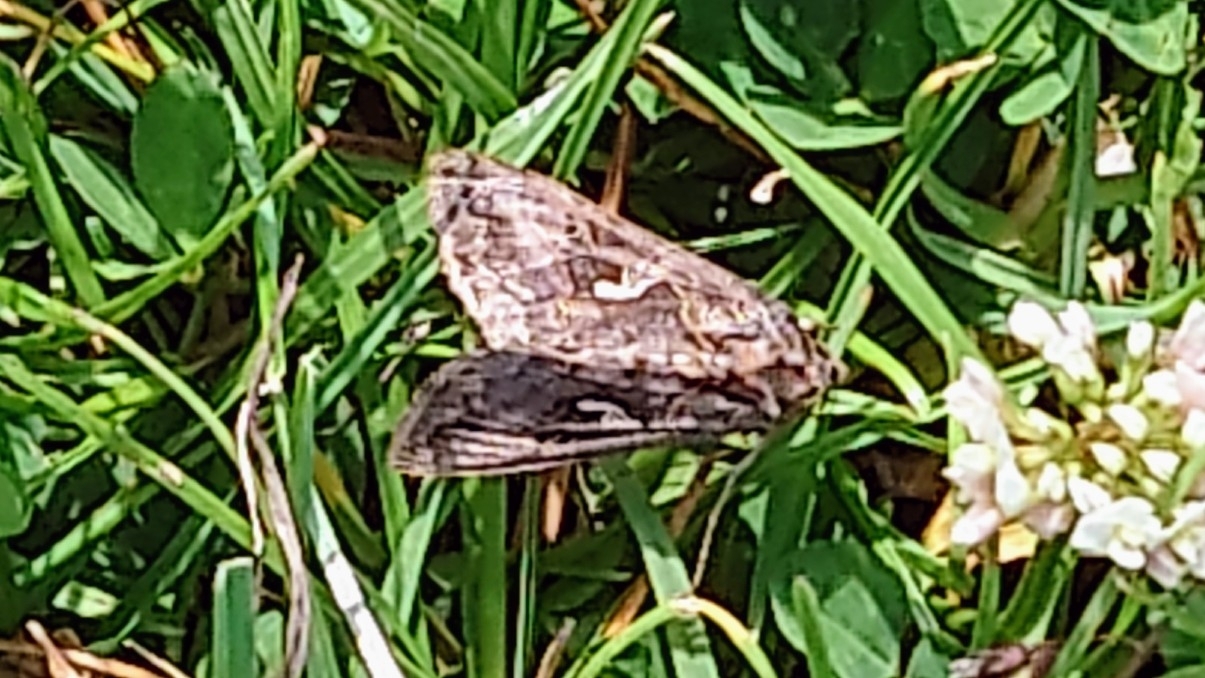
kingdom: Animalia
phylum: Arthropoda
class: Insecta
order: Lepidoptera
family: Noctuidae
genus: Autographa
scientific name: Autographa gamma
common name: Silver y
